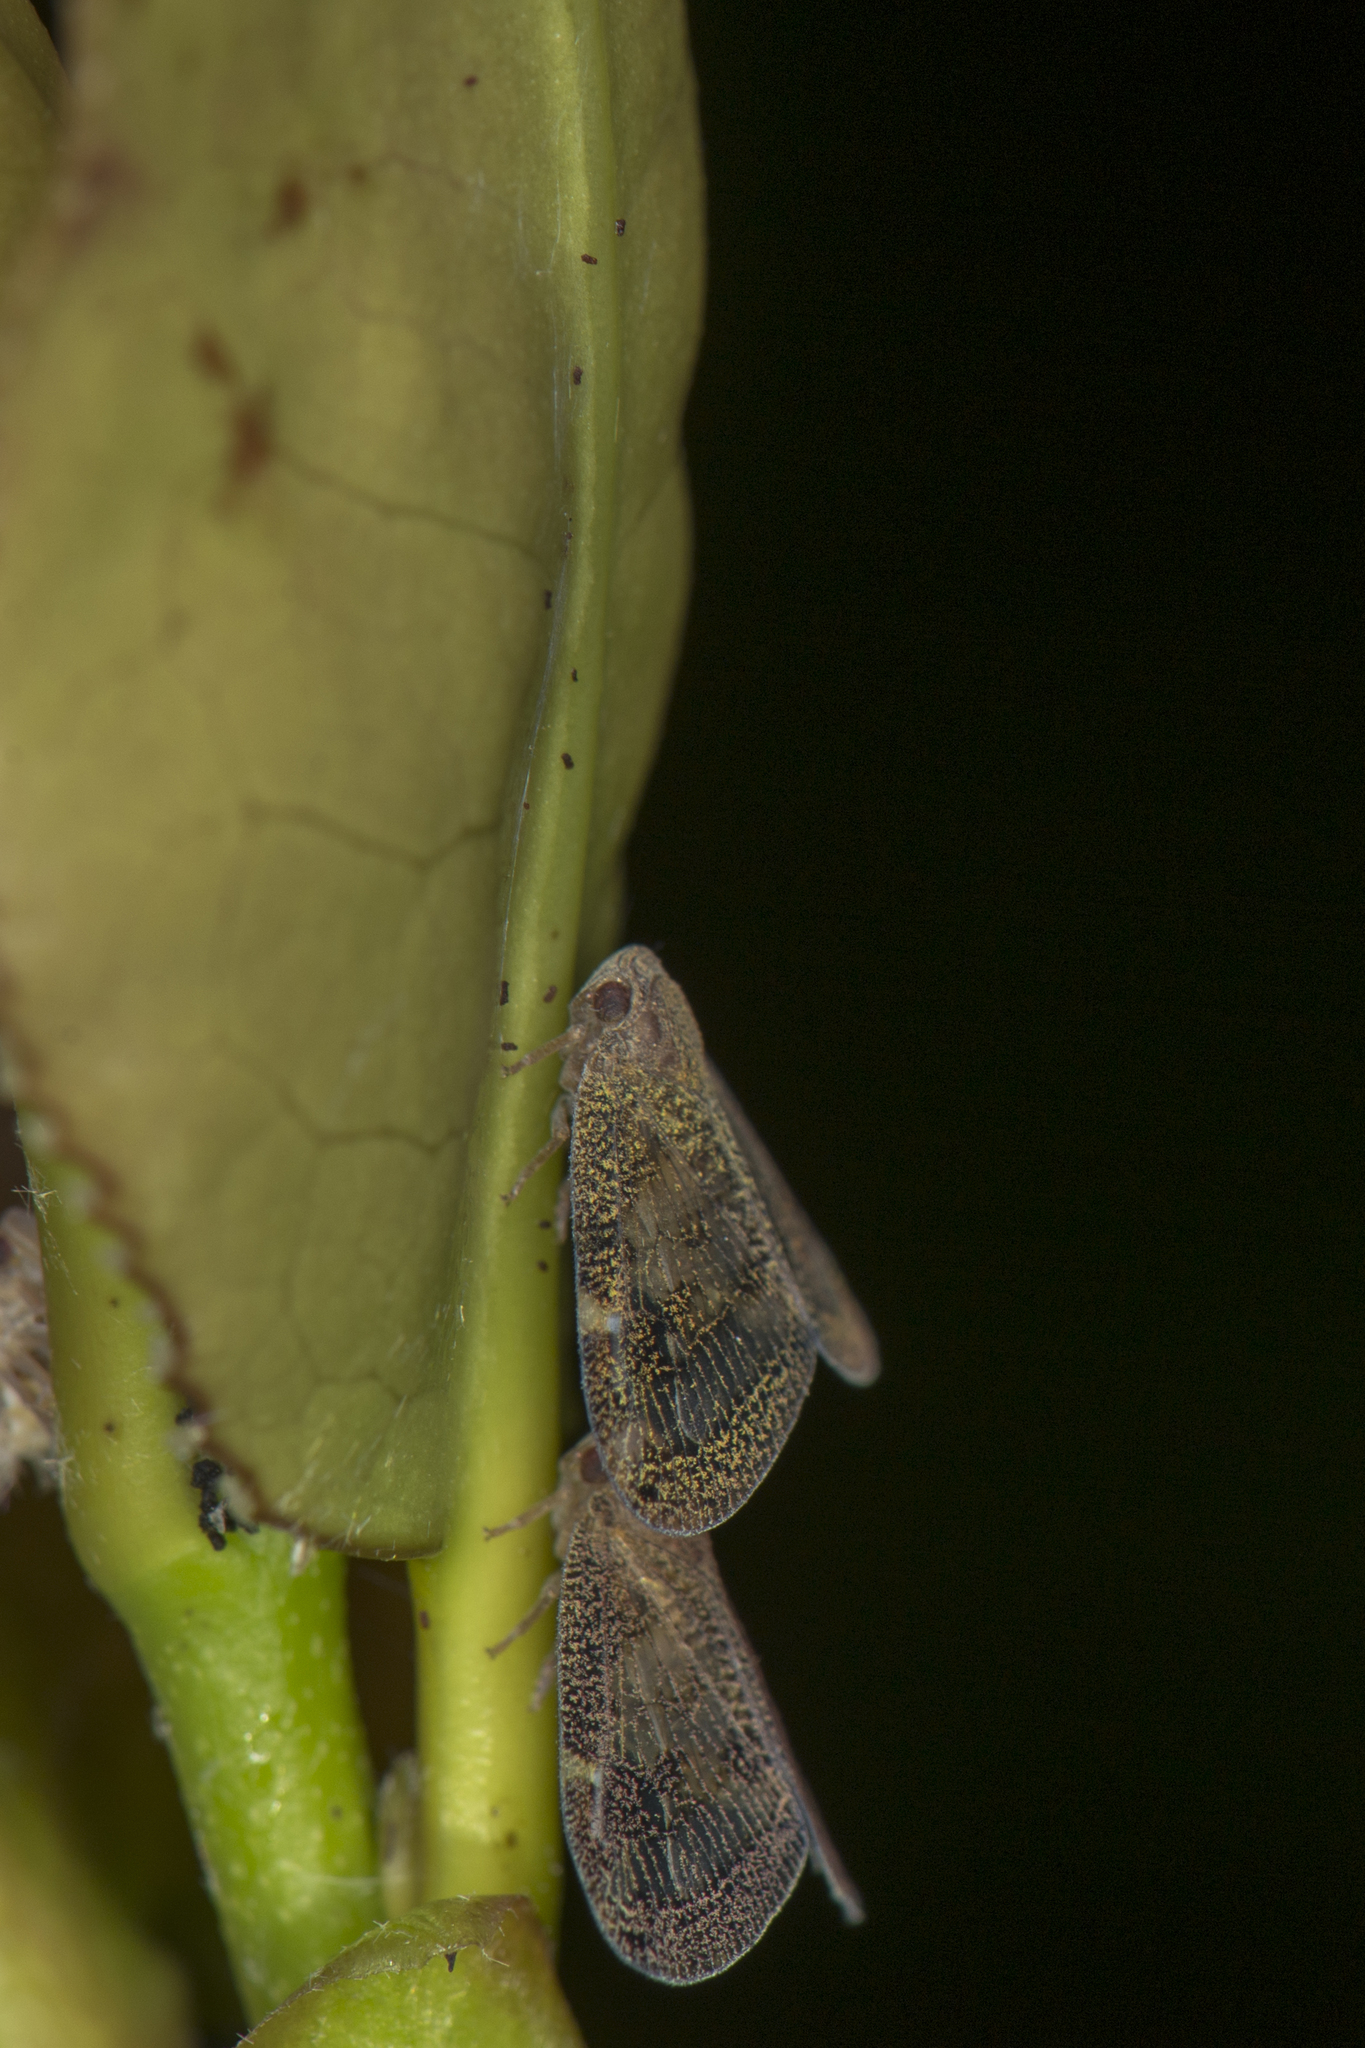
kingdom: Animalia
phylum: Arthropoda
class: Insecta
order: Hemiptera
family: Ricaniidae
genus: Scolypopa
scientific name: Scolypopa australis
